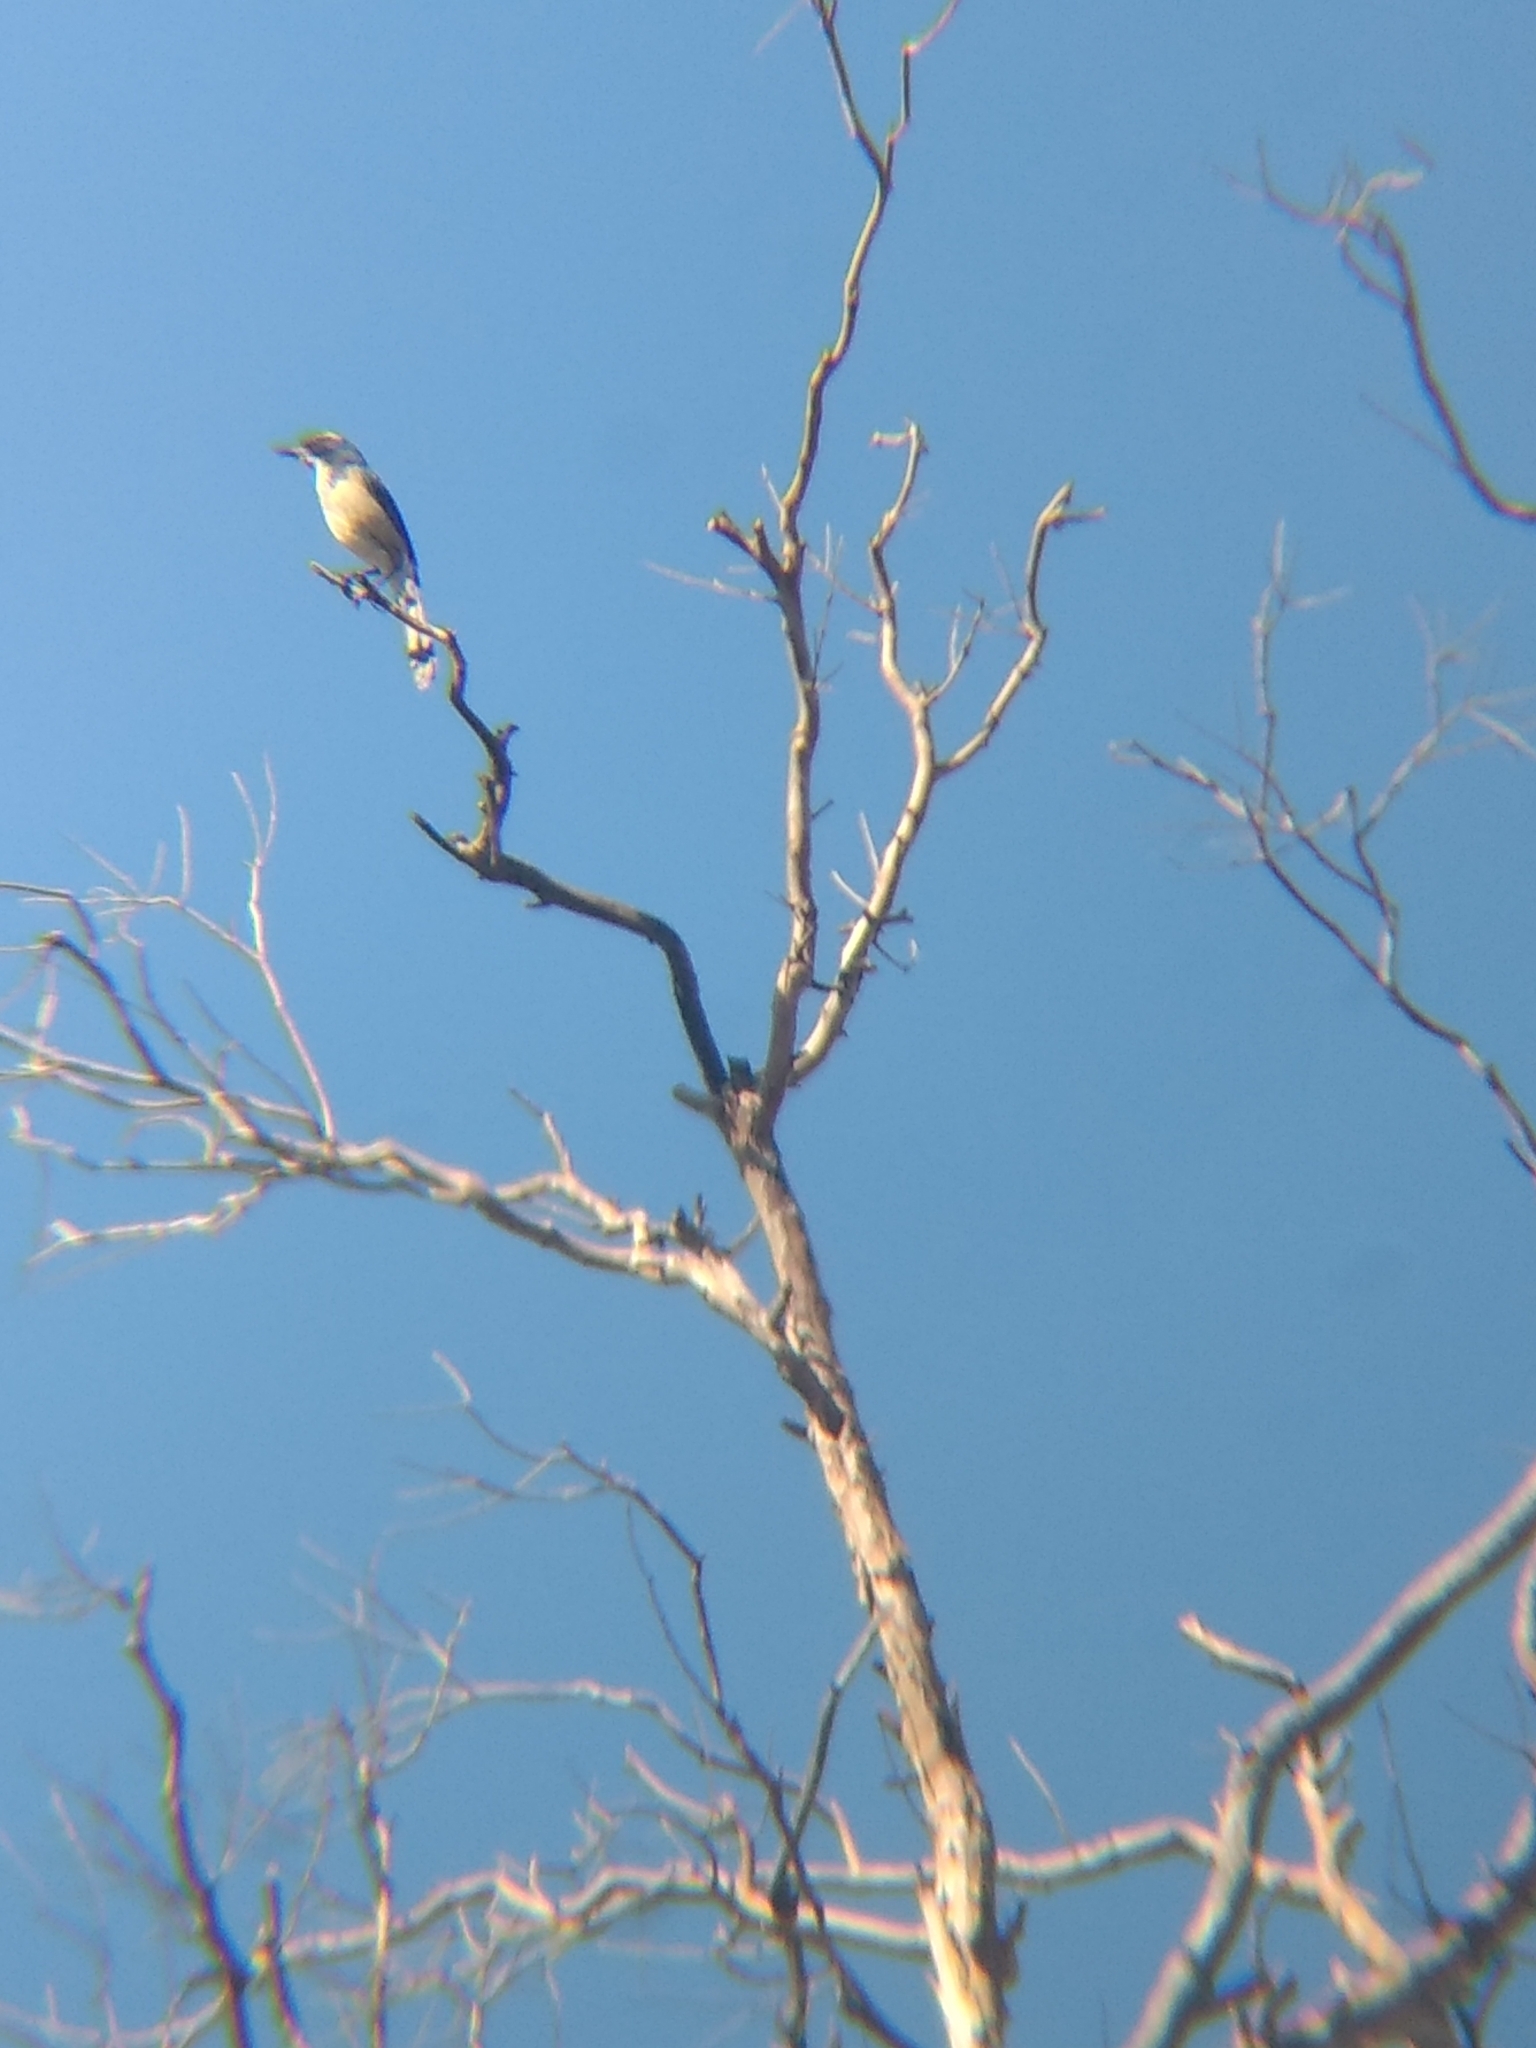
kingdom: Animalia
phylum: Chordata
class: Aves
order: Passeriformes
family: Corvidae
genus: Aphelocoma
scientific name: Aphelocoma californica
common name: California scrub-jay
